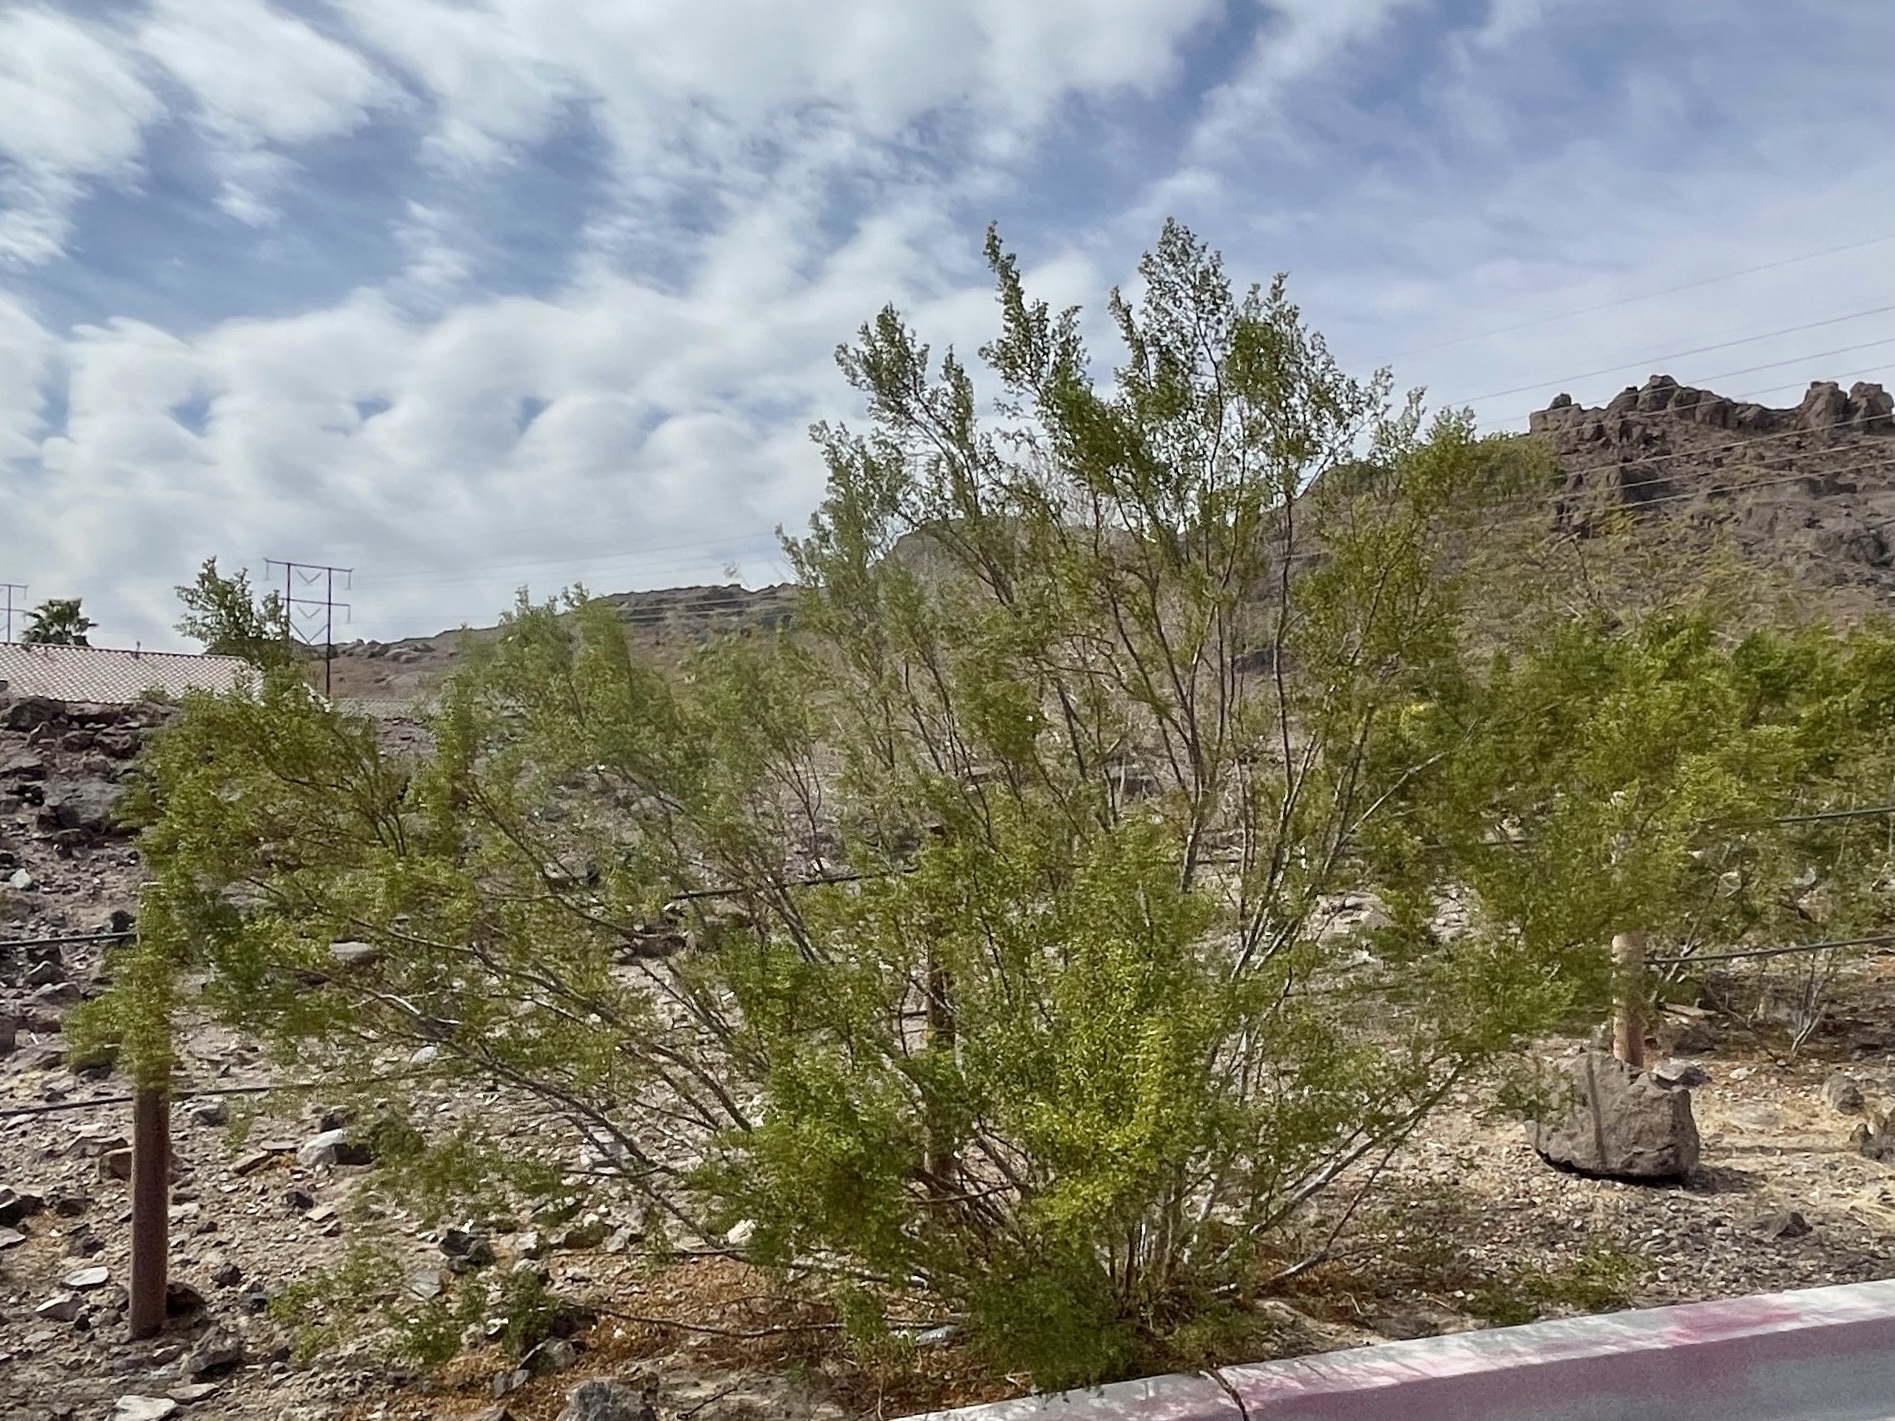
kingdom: Plantae
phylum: Tracheophyta
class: Magnoliopsida
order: Zygophyllales
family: Zygophyllaceae
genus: Larrea
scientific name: Larrea tridentata
